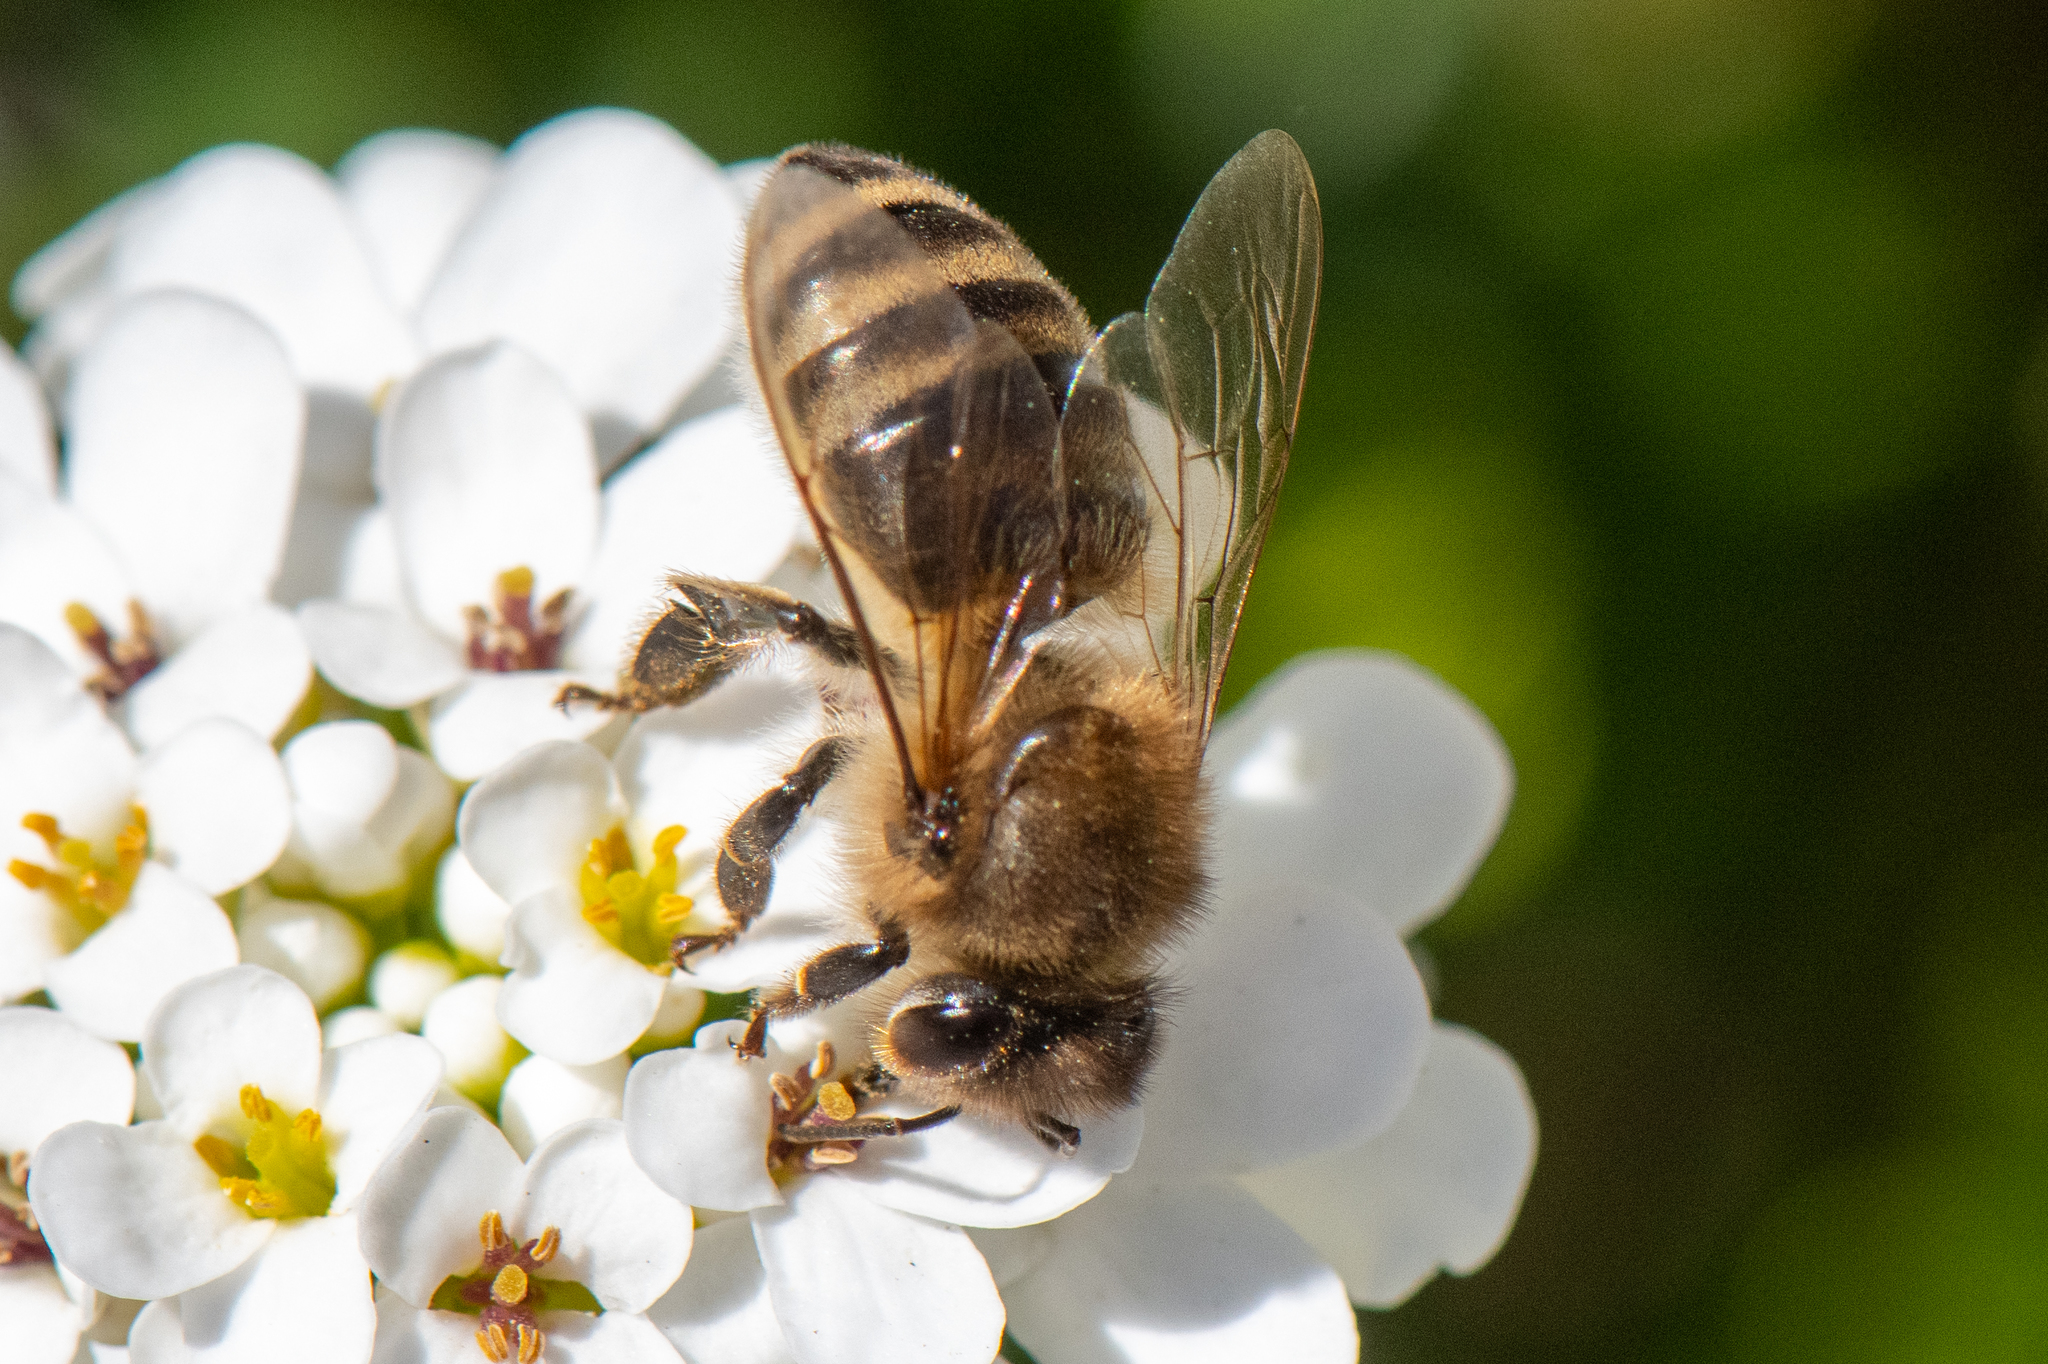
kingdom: Animalia
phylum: Arthropoda
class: Insecta
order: Hymenoptera
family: Apidae
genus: Apis
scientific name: Apis mellifera
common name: Honey bee
